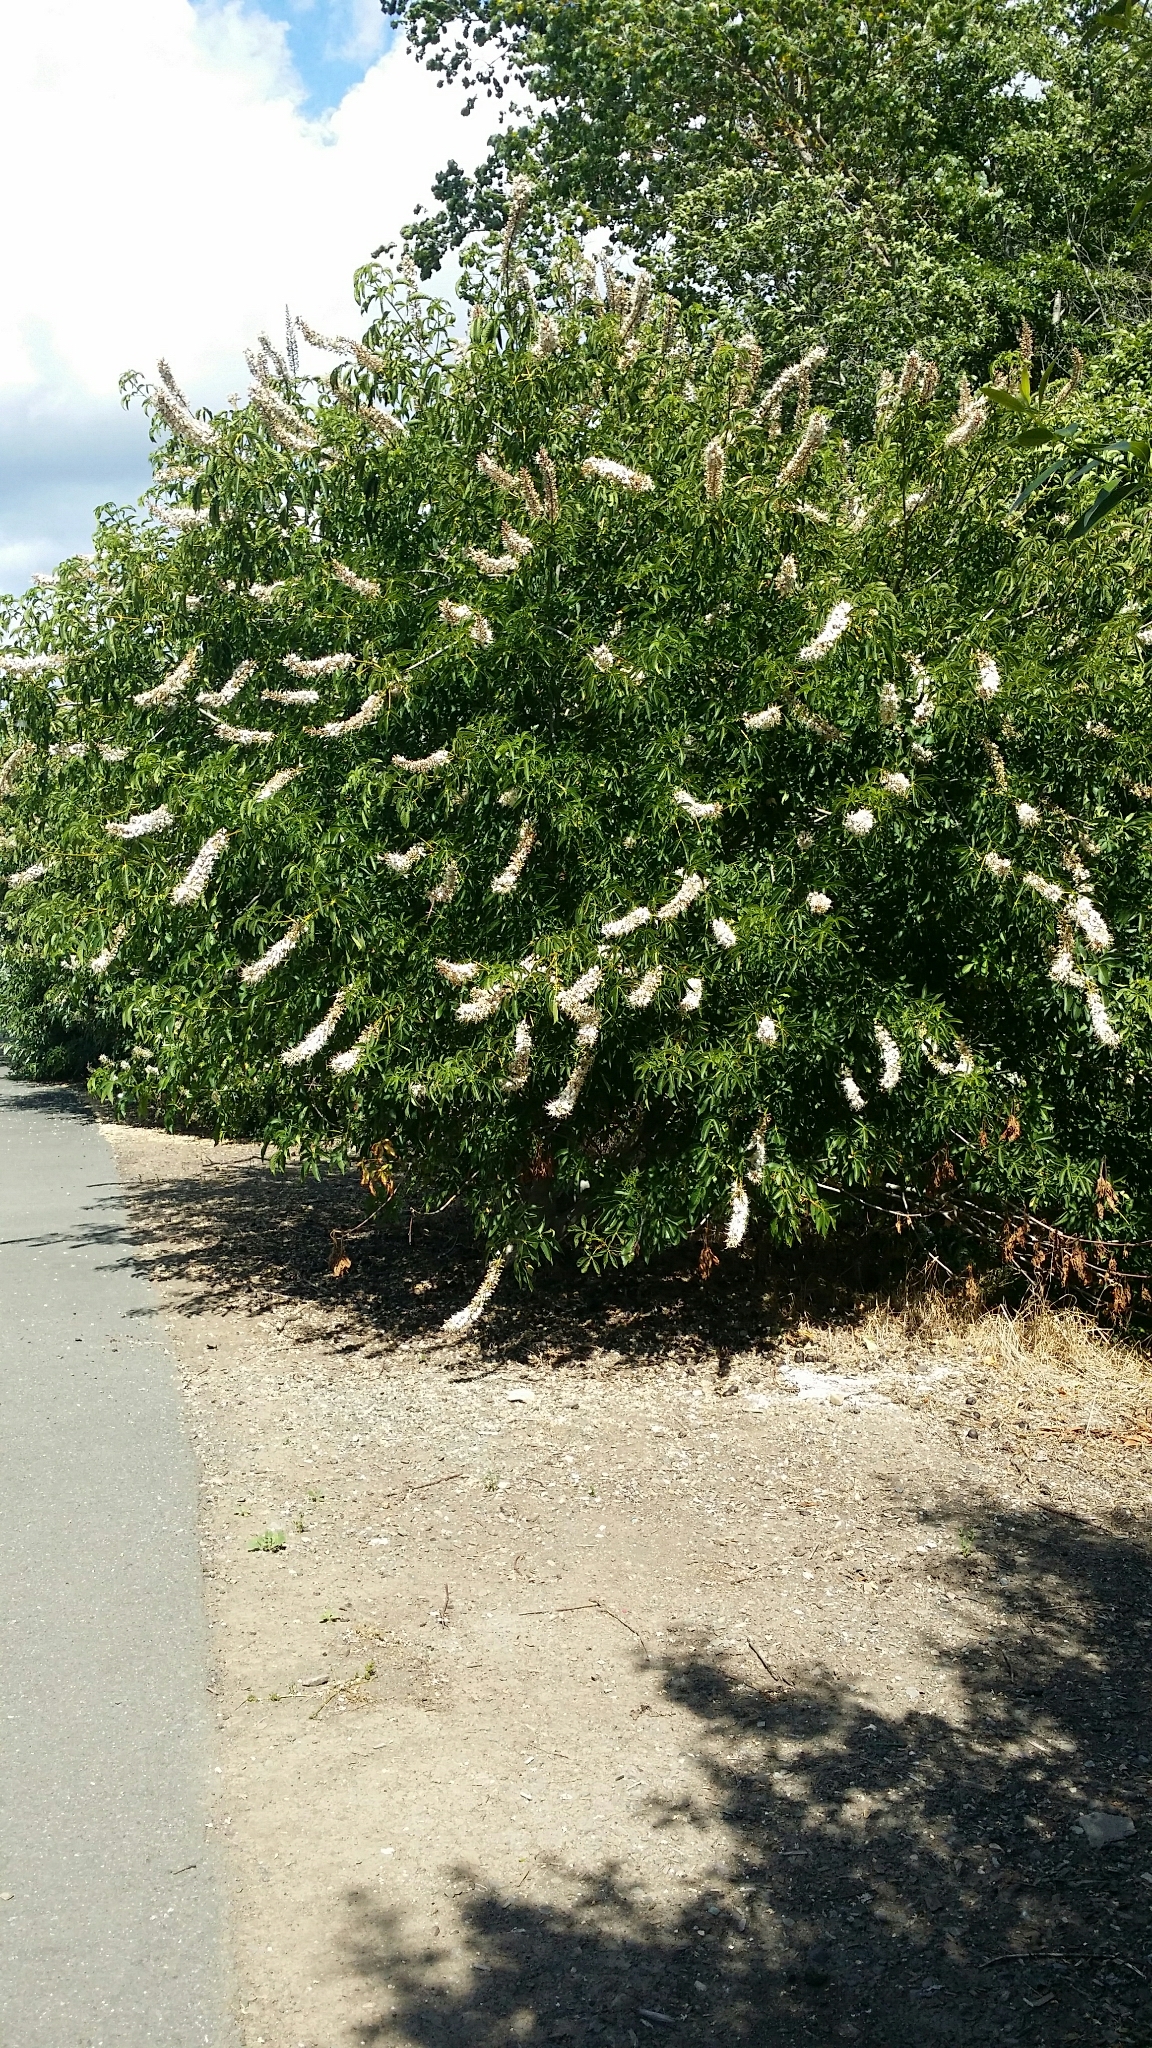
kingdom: Plantae
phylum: Tracheophyta
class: Magnoliopsida
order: Sapindales
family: Sapindaceae
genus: Aesculus
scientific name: Aesculus californica
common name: California buckeye
